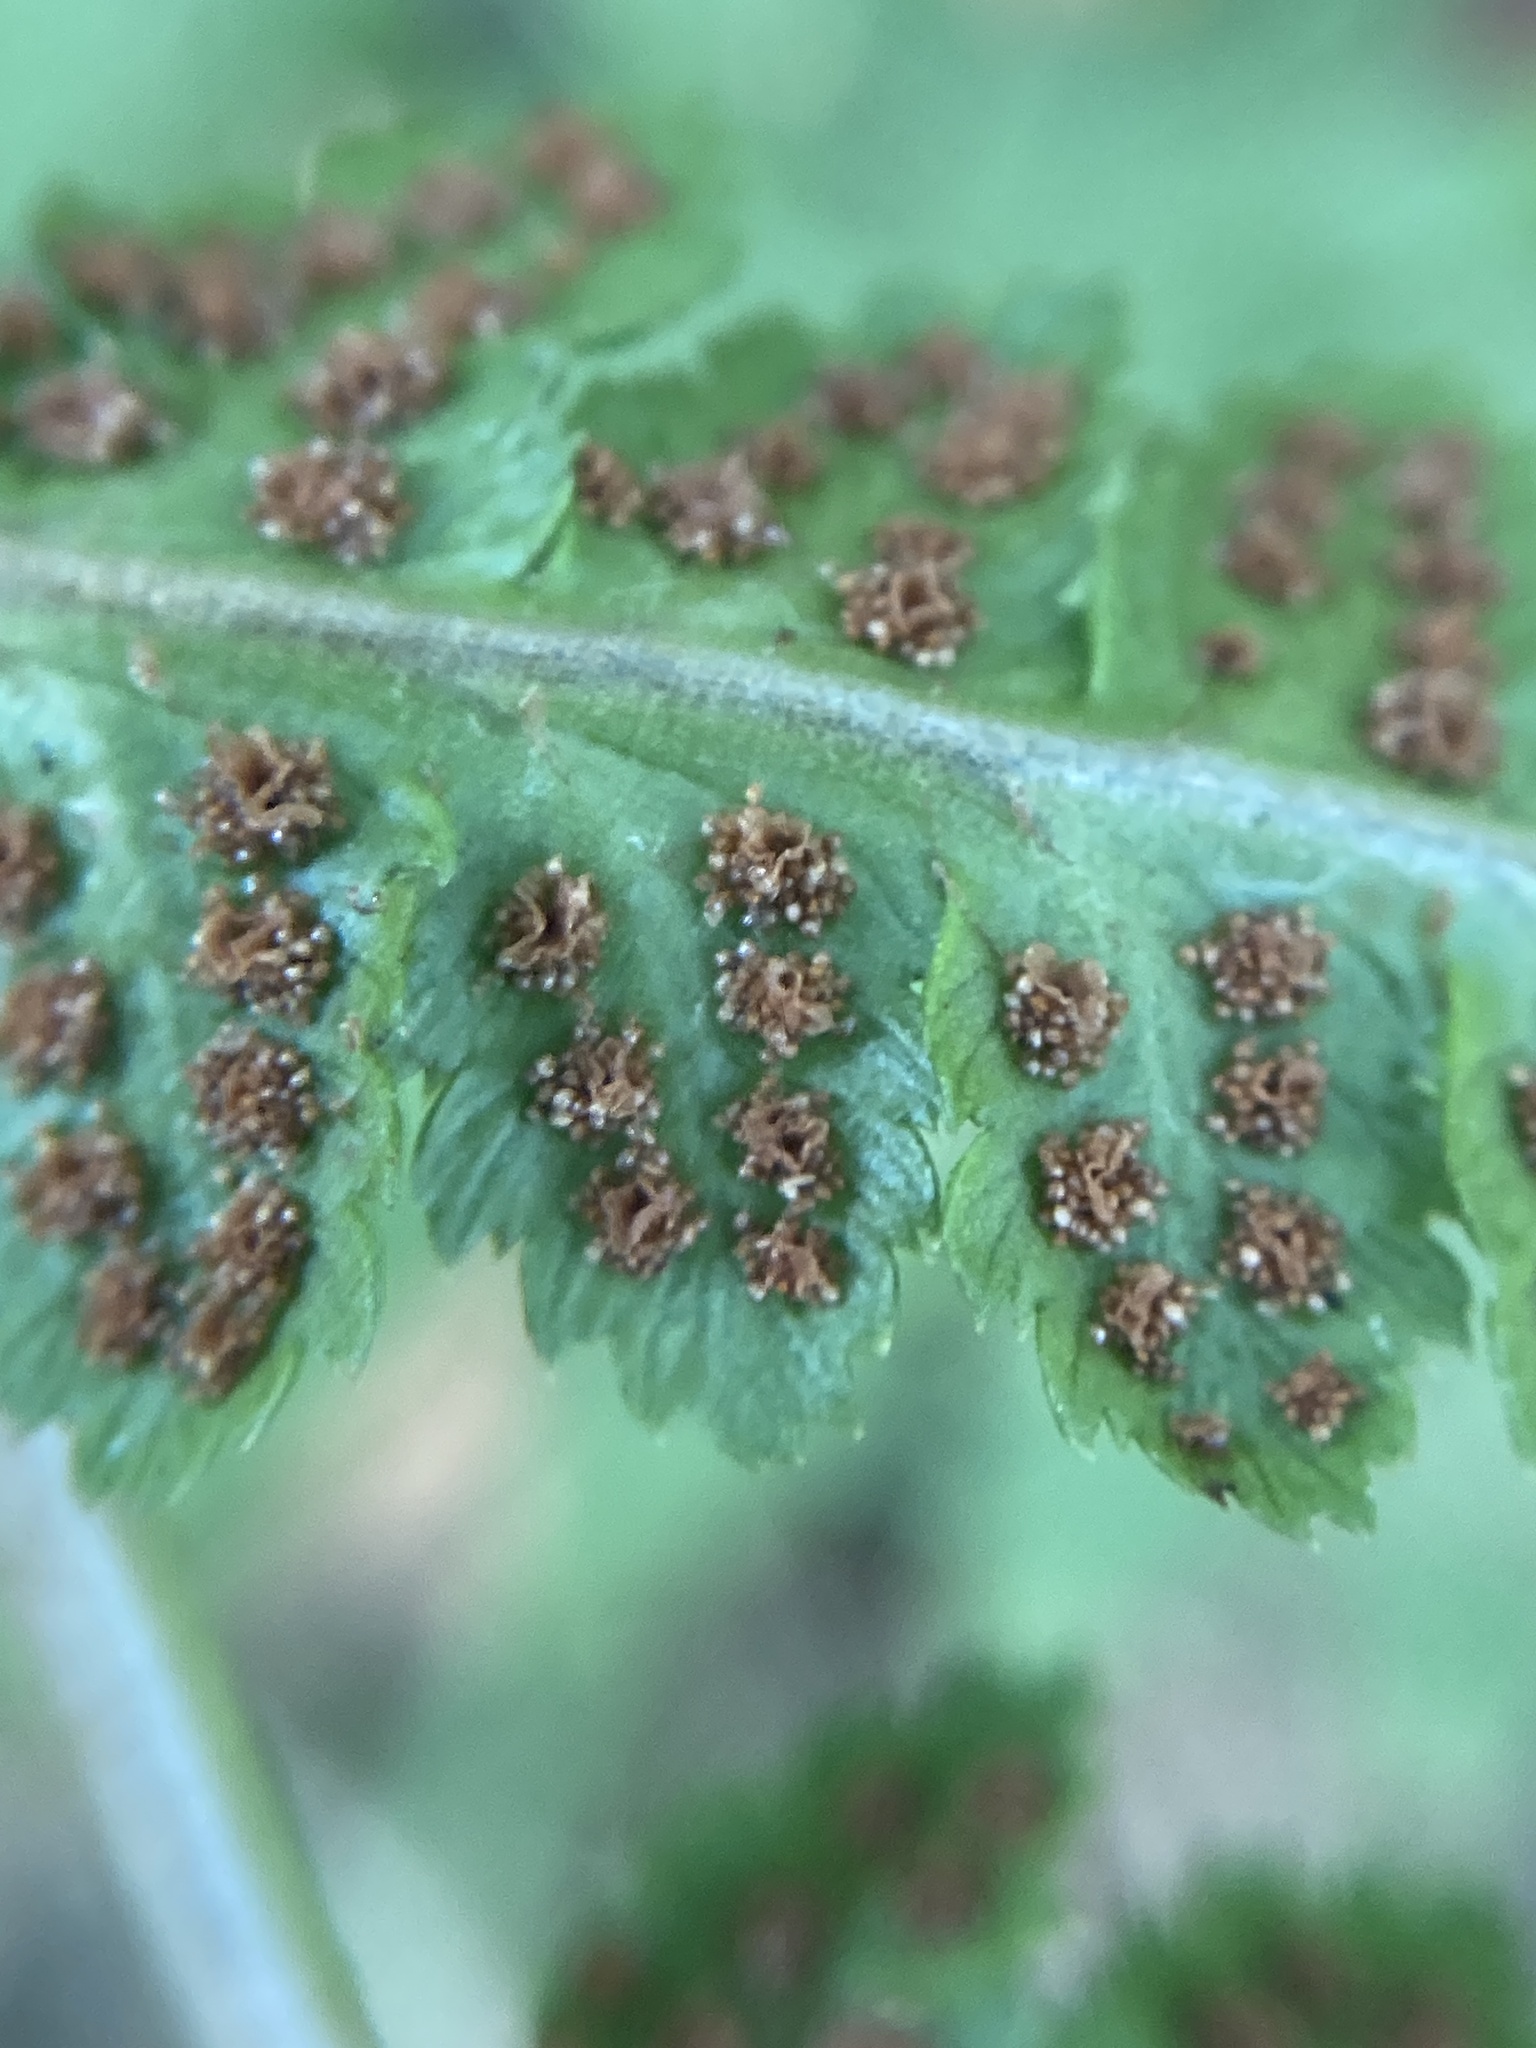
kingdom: Plantae
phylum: Tracheophyta
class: Polypodiopsida
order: Polypodiales
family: Dryopteridaceae
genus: Dryopteris
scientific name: Dryopteris cristata
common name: Crested wood fern
